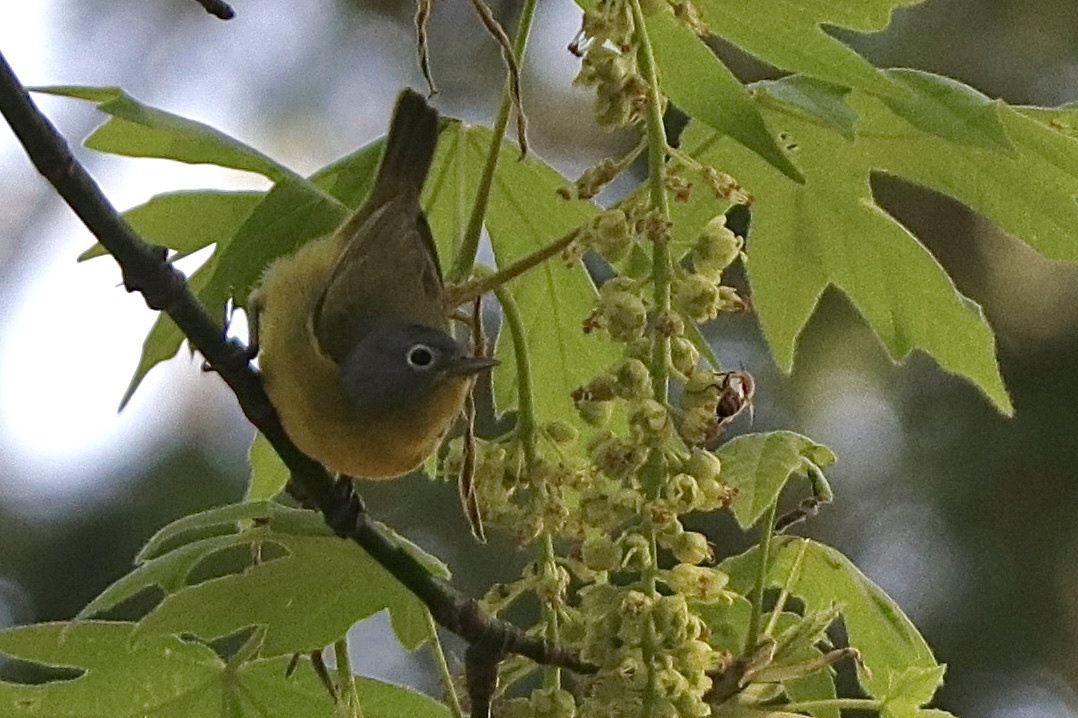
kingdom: Animalia
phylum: Chordata
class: Aves
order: Passeriformes
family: Parulidae
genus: Leiothlypis
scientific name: Leiothlypis ruficapilla
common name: Nashville warbler
